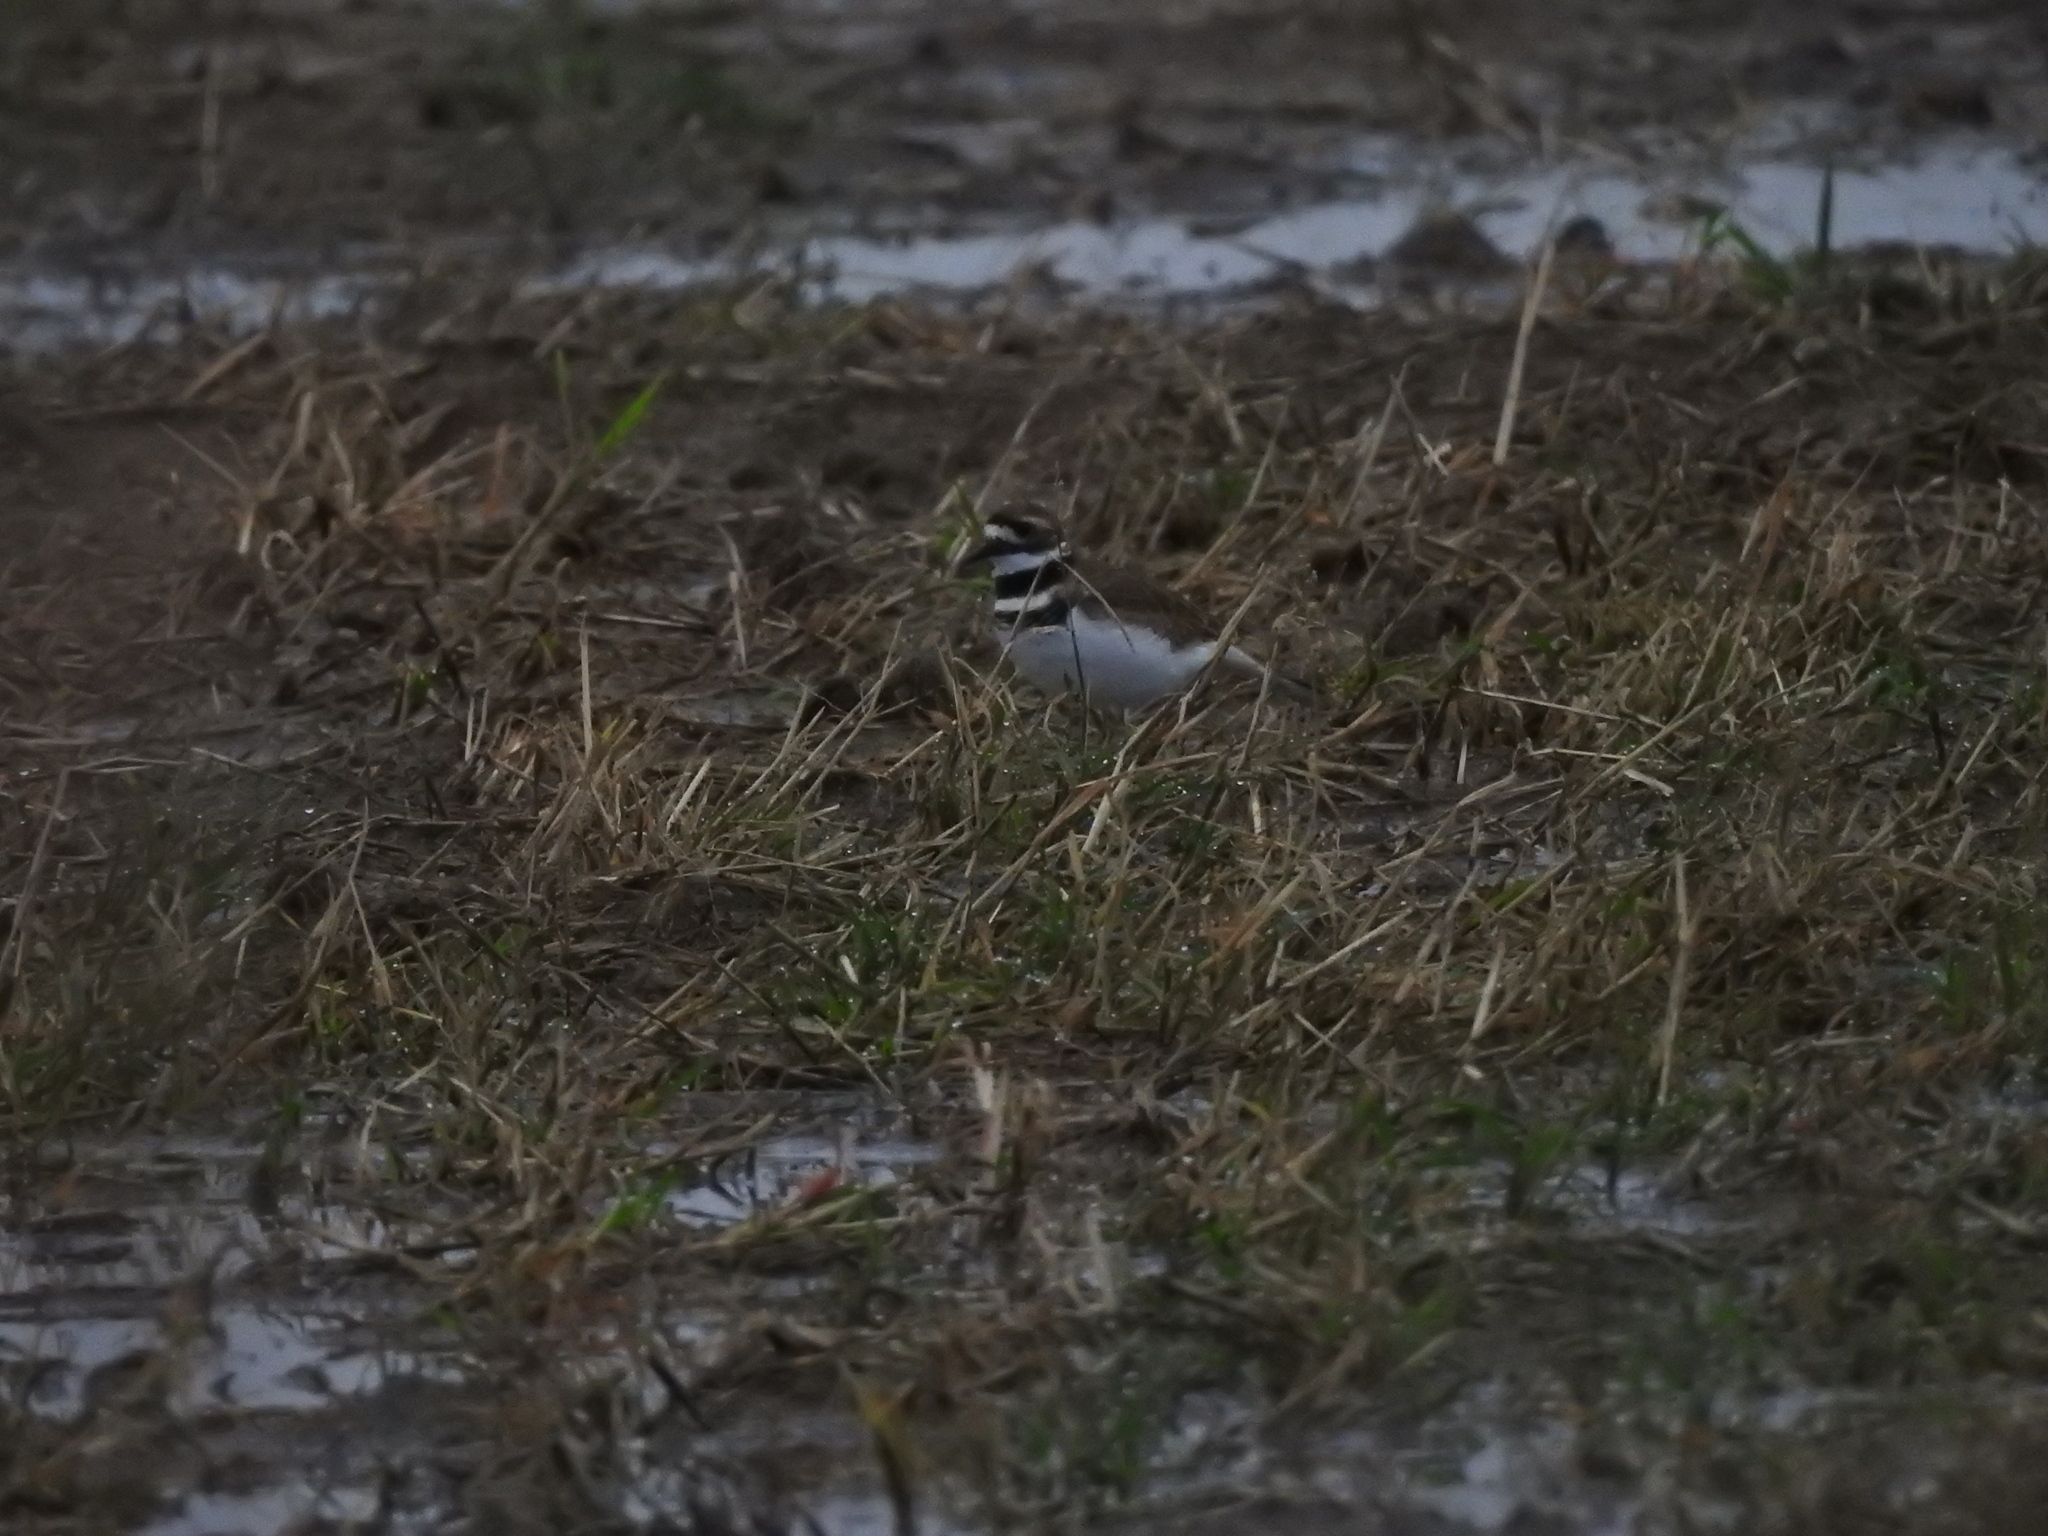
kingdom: Animalia
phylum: Chordata
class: Aves
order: Charadriiformes
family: Charadriidae
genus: Charadrius
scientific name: Charadrius vociferus
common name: Killdeer
